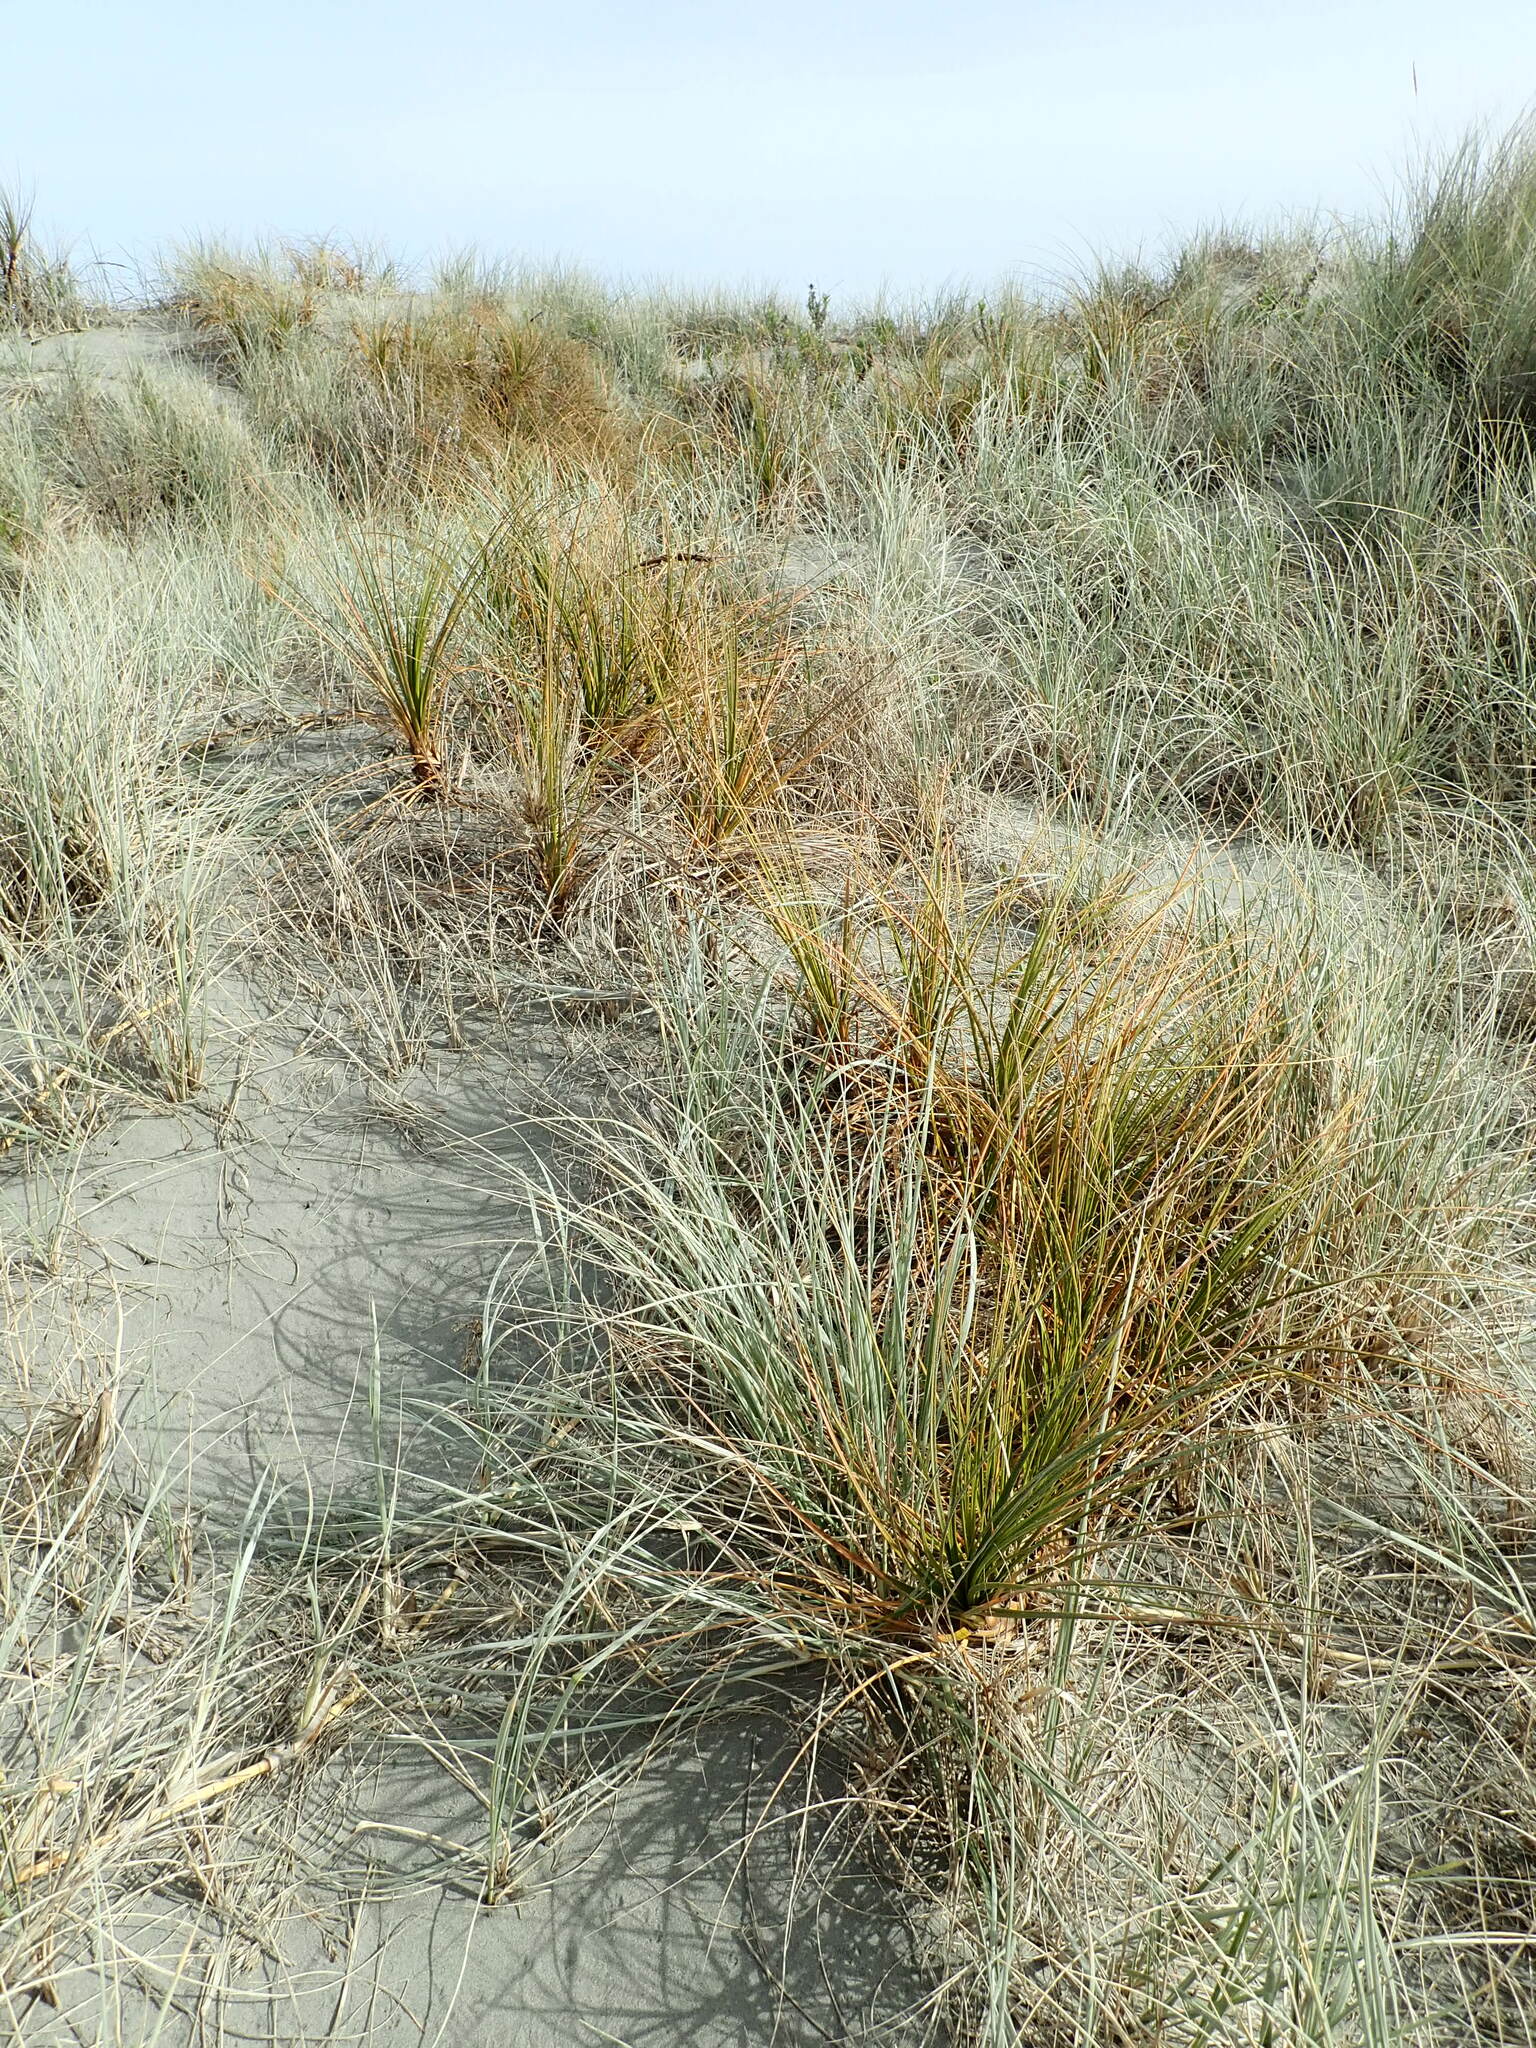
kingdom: Plantae
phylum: Tracheophyta
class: Liliopsida
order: Poales
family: Cyperaceae
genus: Ficinia
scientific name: Ficinia spiralis
